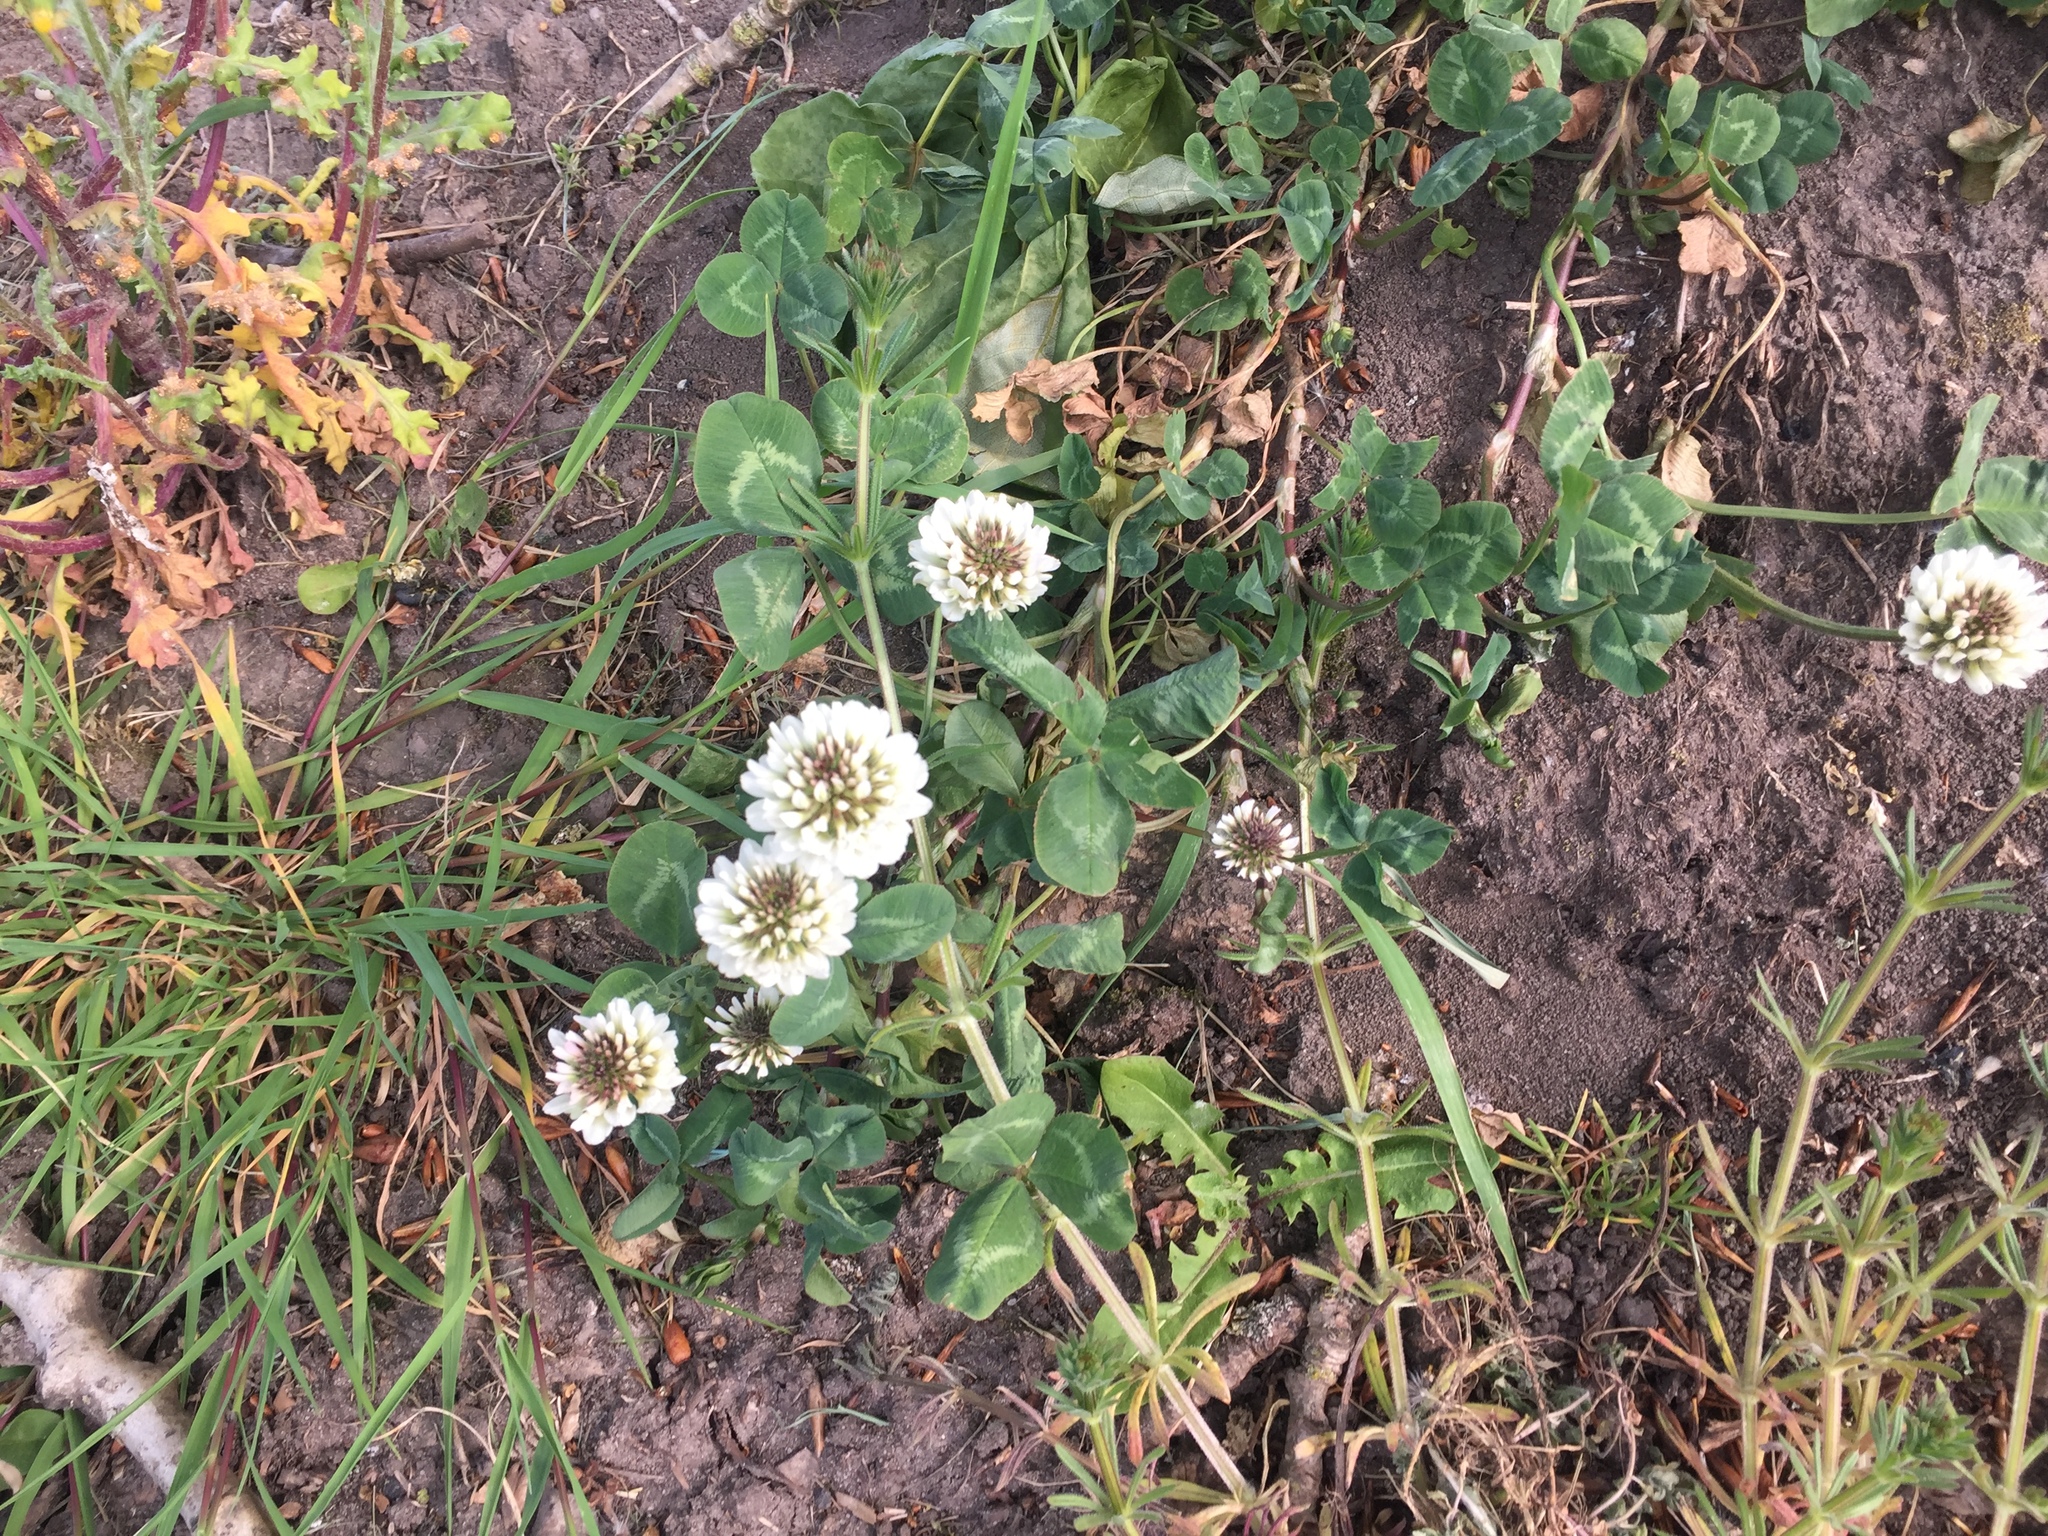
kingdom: Plantae
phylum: Tracheophyta
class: Magnoliopsida
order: Fabales
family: Fabaceae
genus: Trifolium
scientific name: Trifolium repens
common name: White clover
